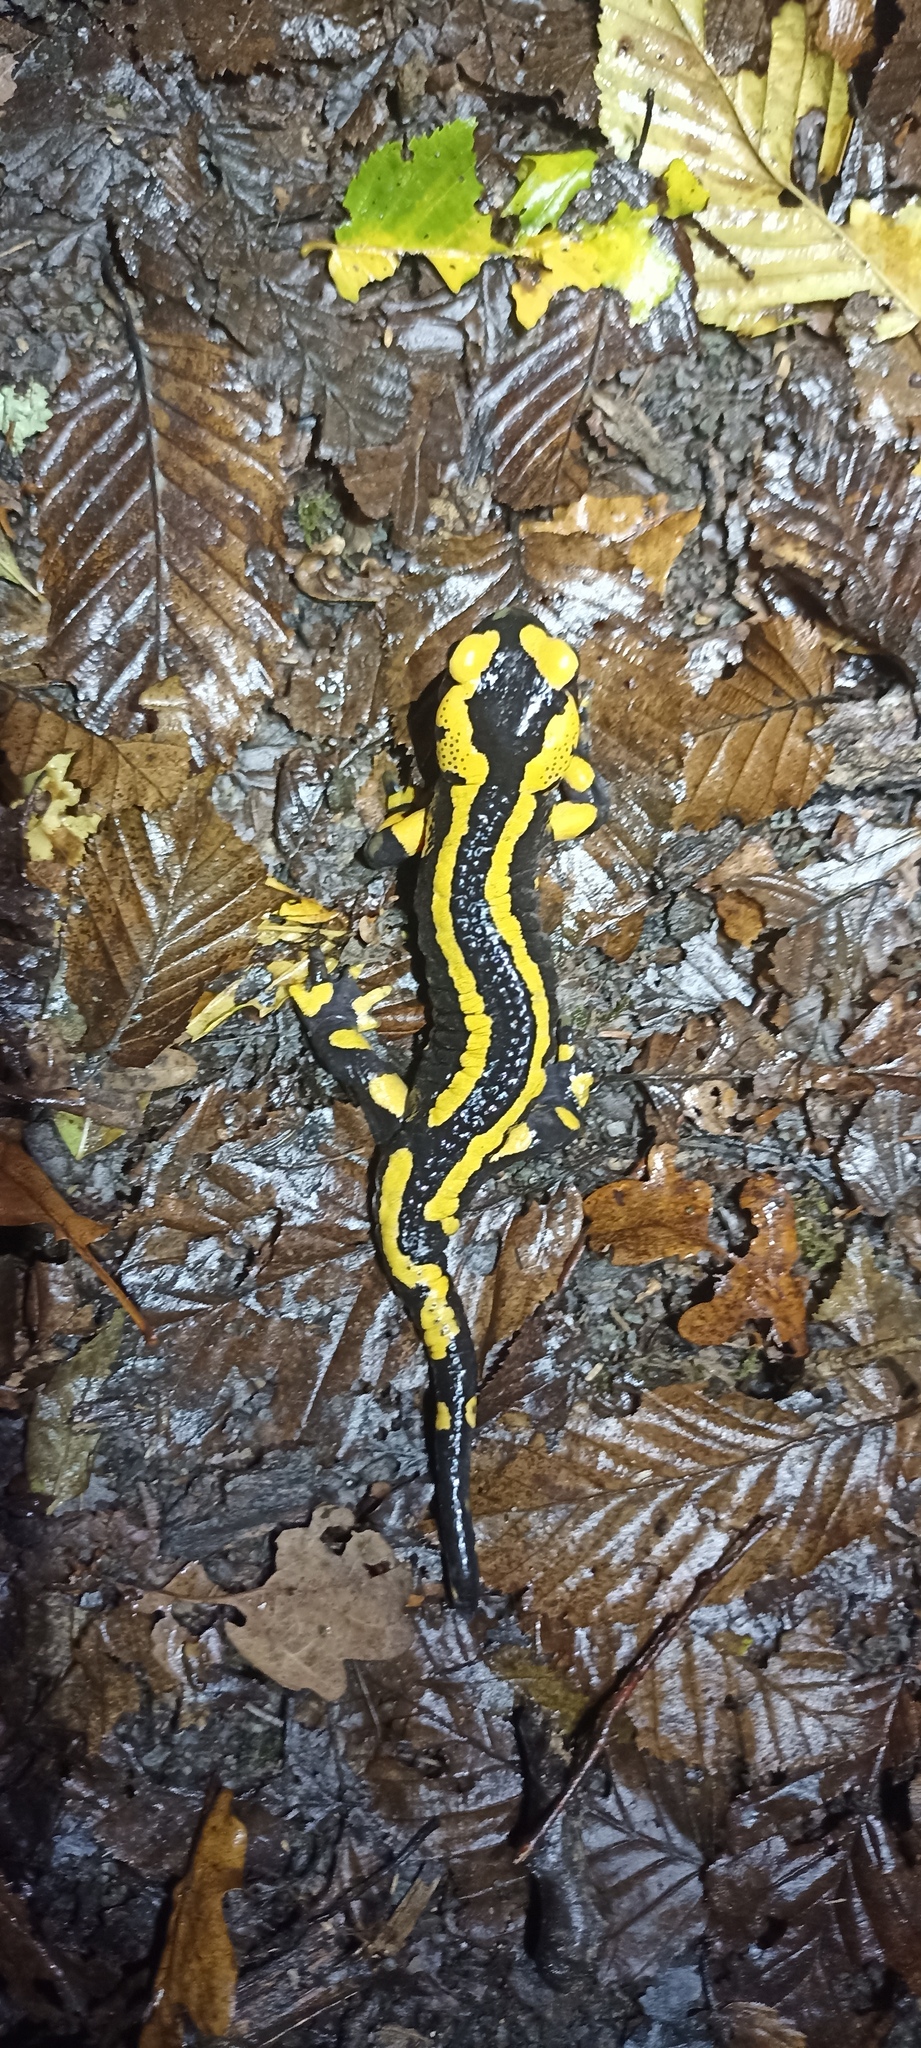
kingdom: Animalia
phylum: Chordata
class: Amphibia
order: Caudata
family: Salamandridae
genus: Salamandra
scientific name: Salamandra salamandra
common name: Fire salamander
